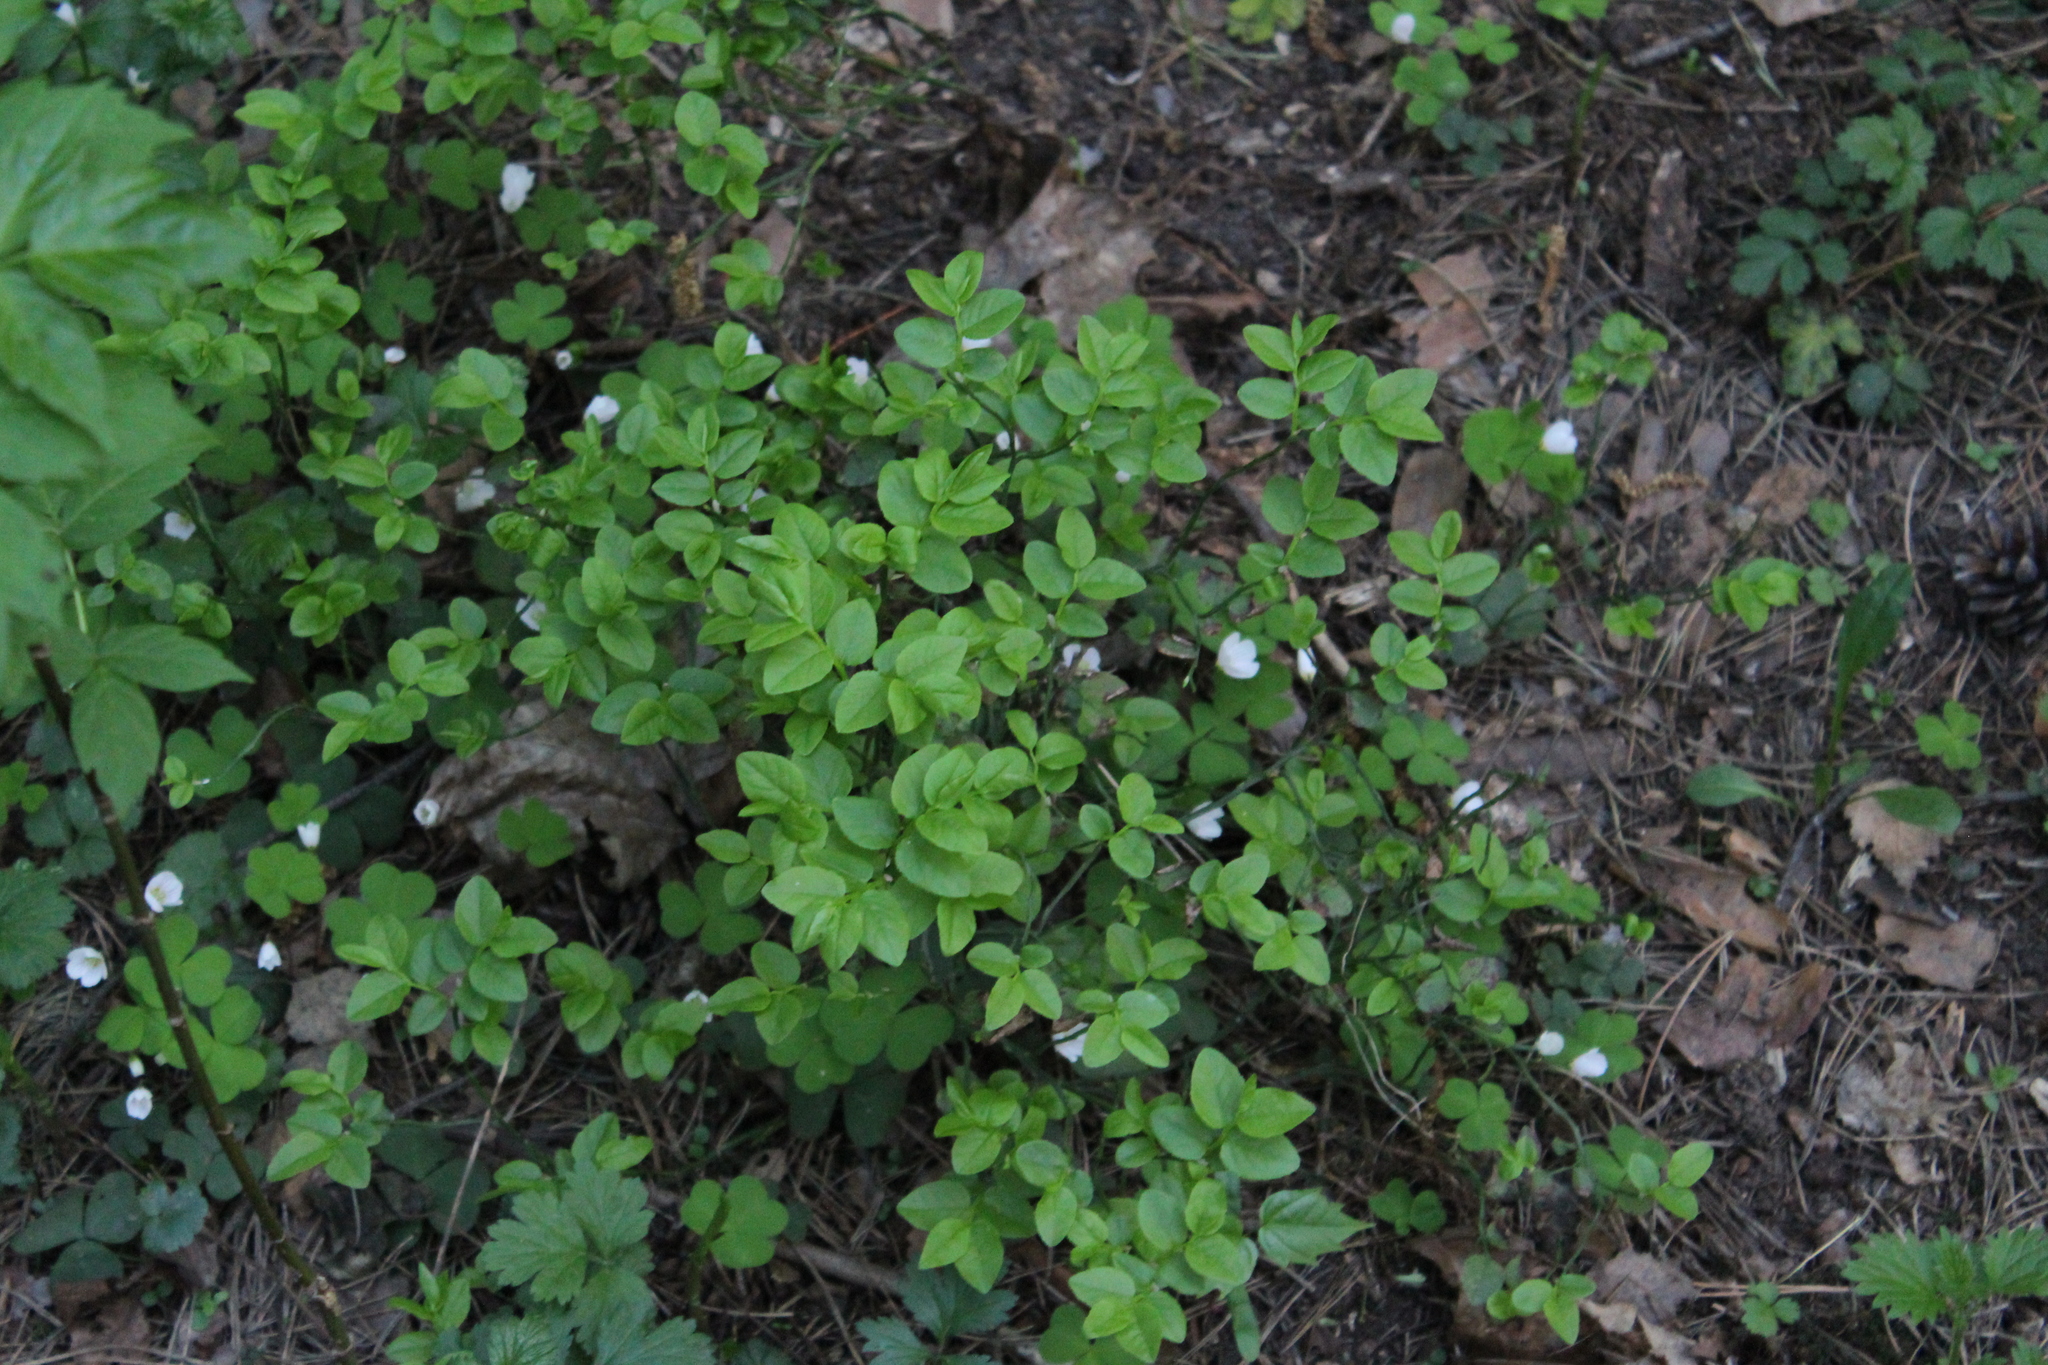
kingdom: Plantae
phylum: Tracheophyta
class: Magnoliopsida
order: Ericales
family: Ericaceae
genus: Vaccinium
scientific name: Vaccinium myrtillus
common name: Bilberry
